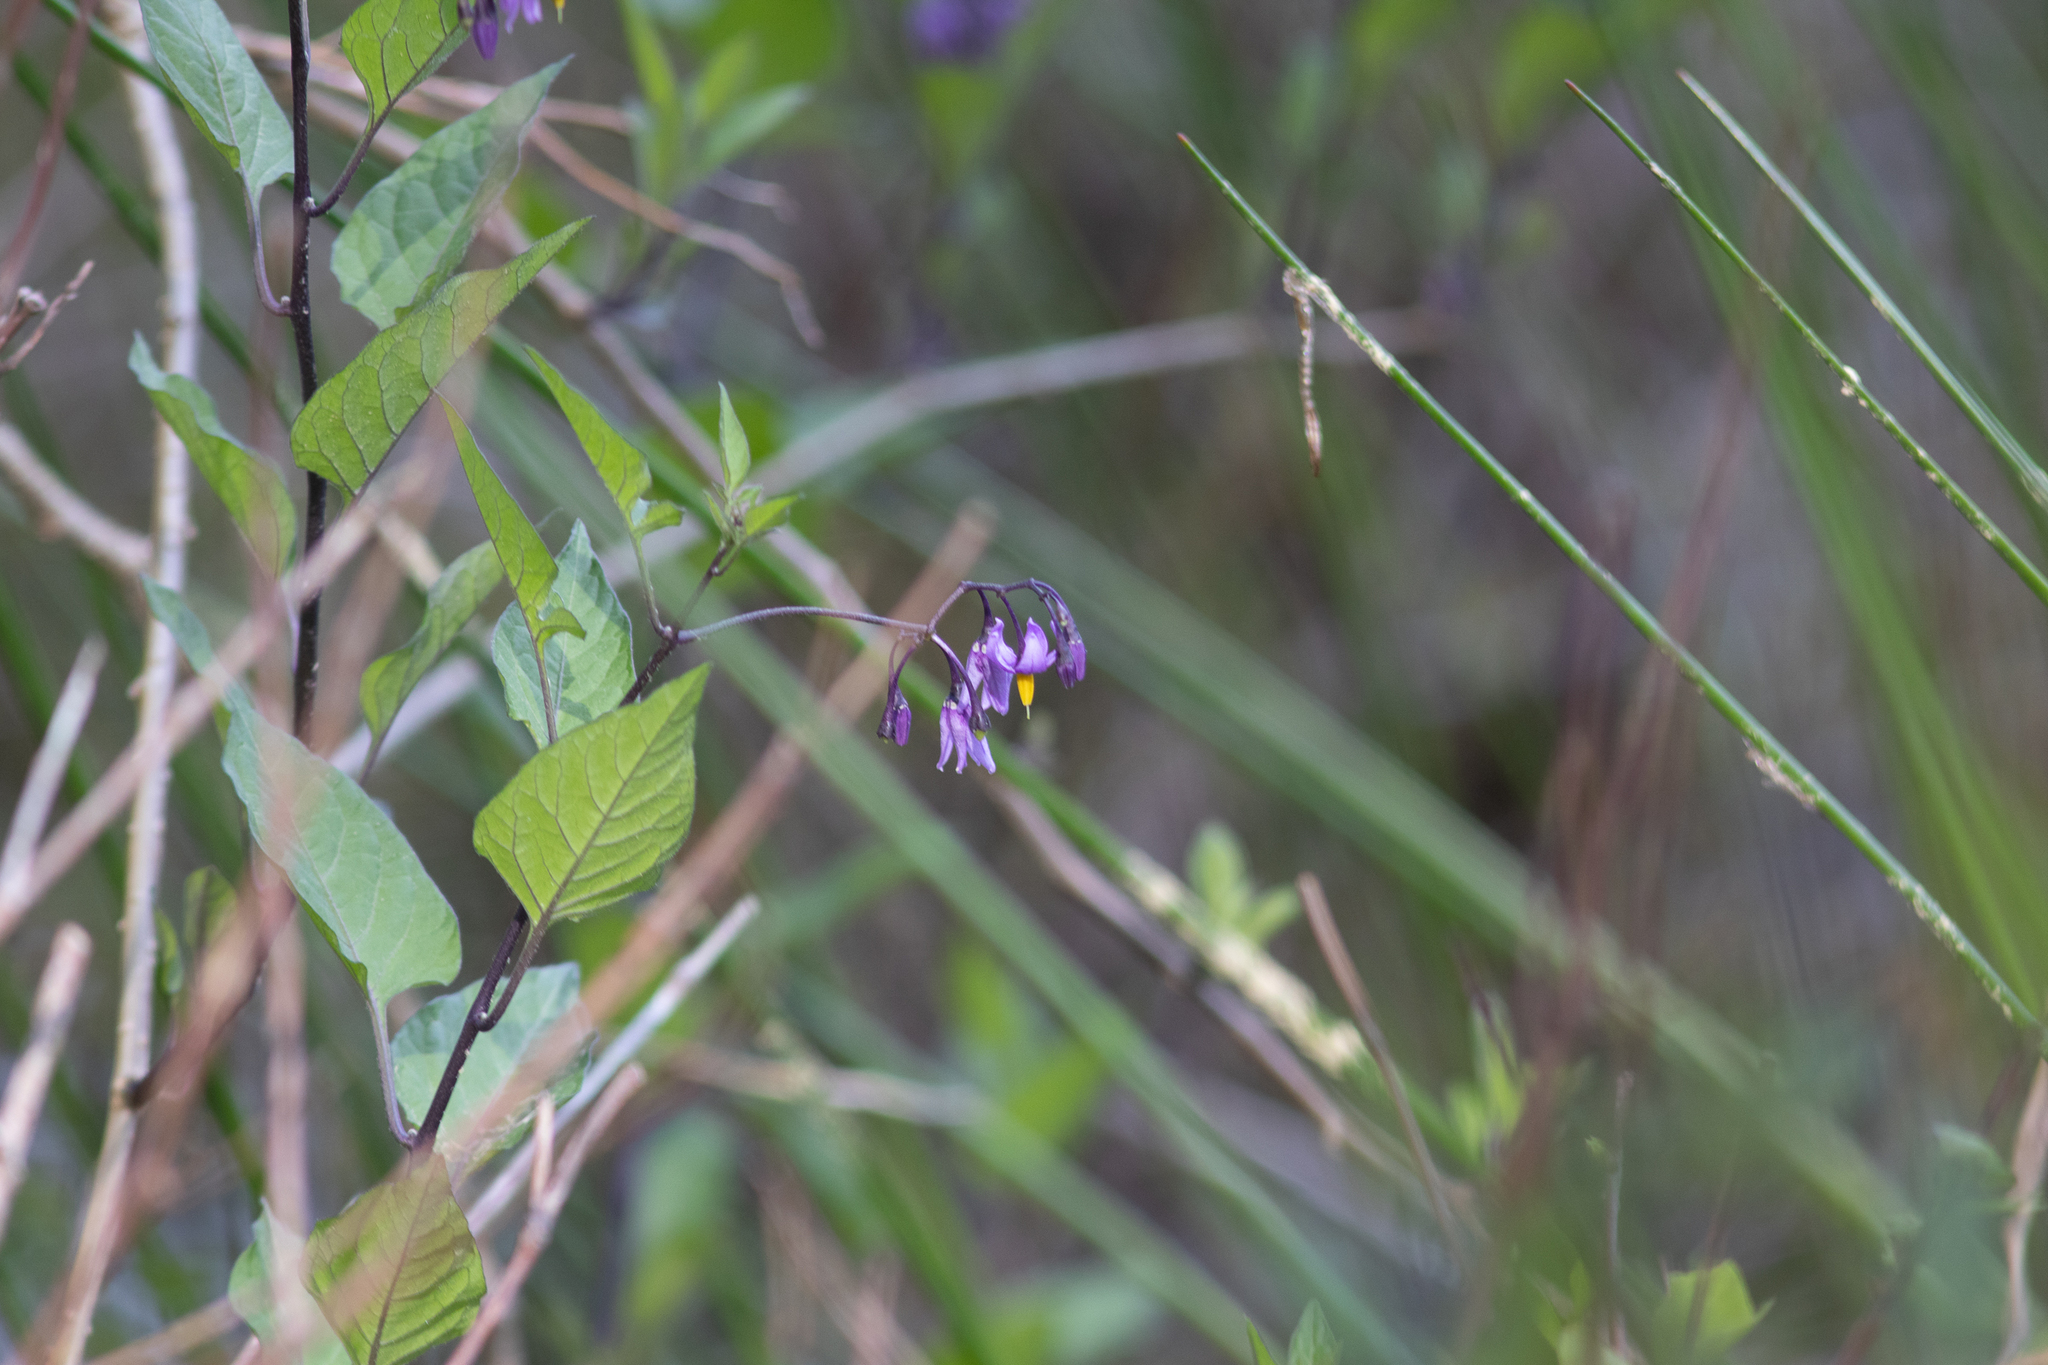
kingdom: Plantae
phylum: Tracheophyta
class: Magnoliopsida
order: Solanales
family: Solanaceae
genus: Solanum
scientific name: Solanum dulcamara
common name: Climbing nightshade
